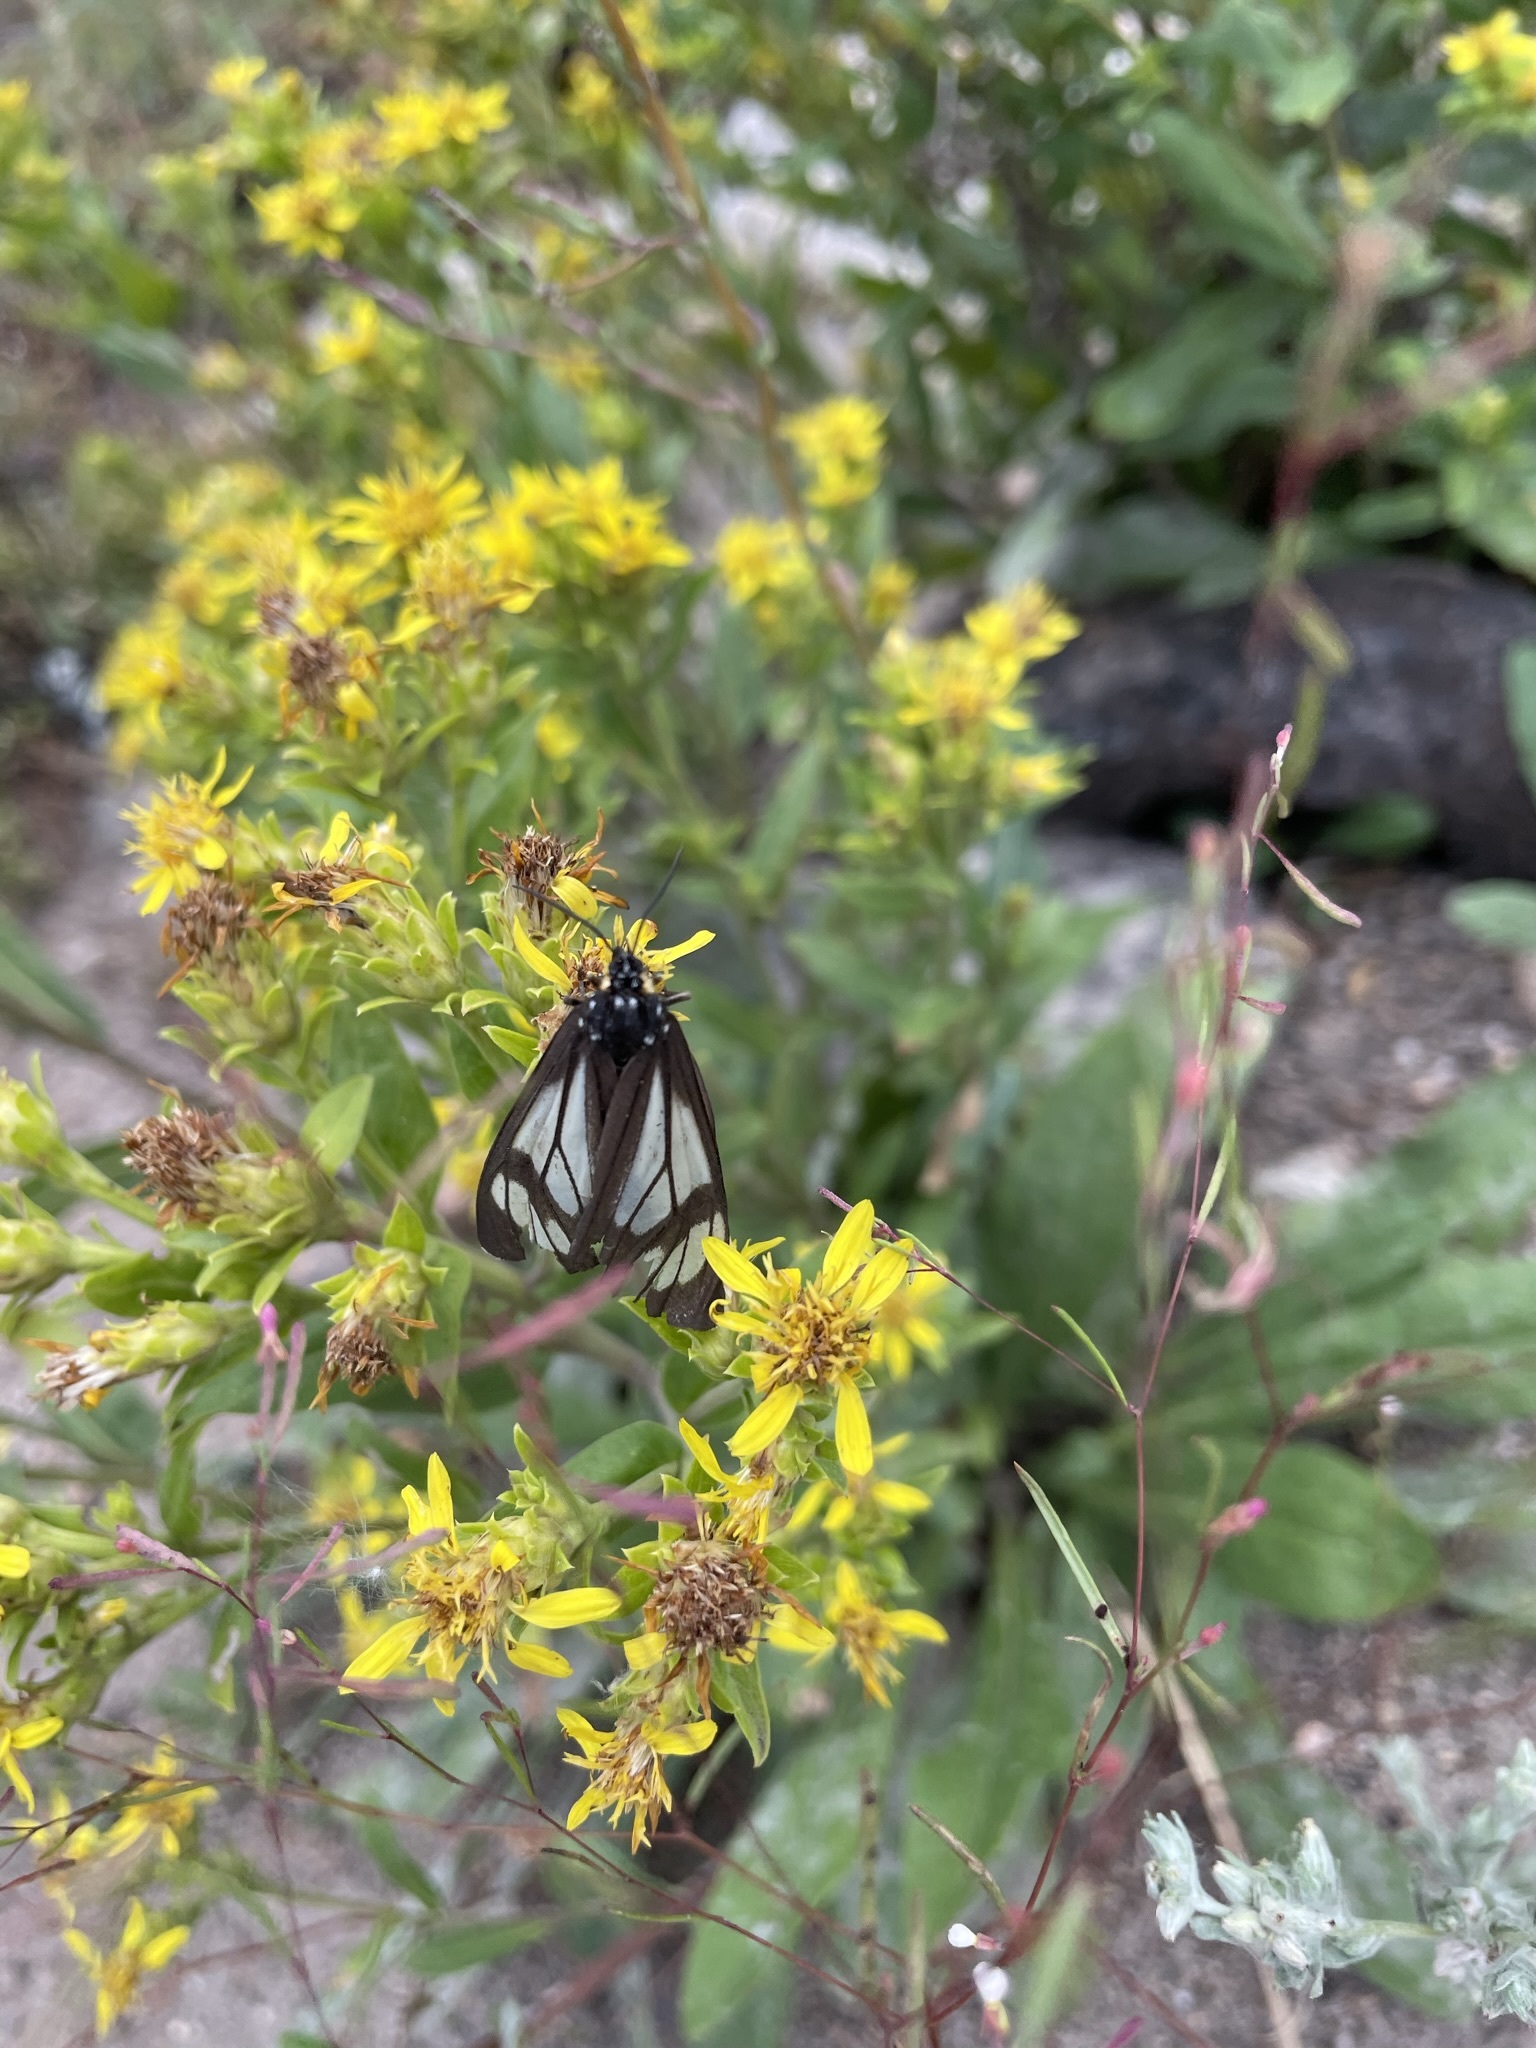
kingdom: Animalia
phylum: Arthropoda
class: Insecta
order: Lepidoptera
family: Erebidae
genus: Gnophaela
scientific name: Gnophaela vermiculata
